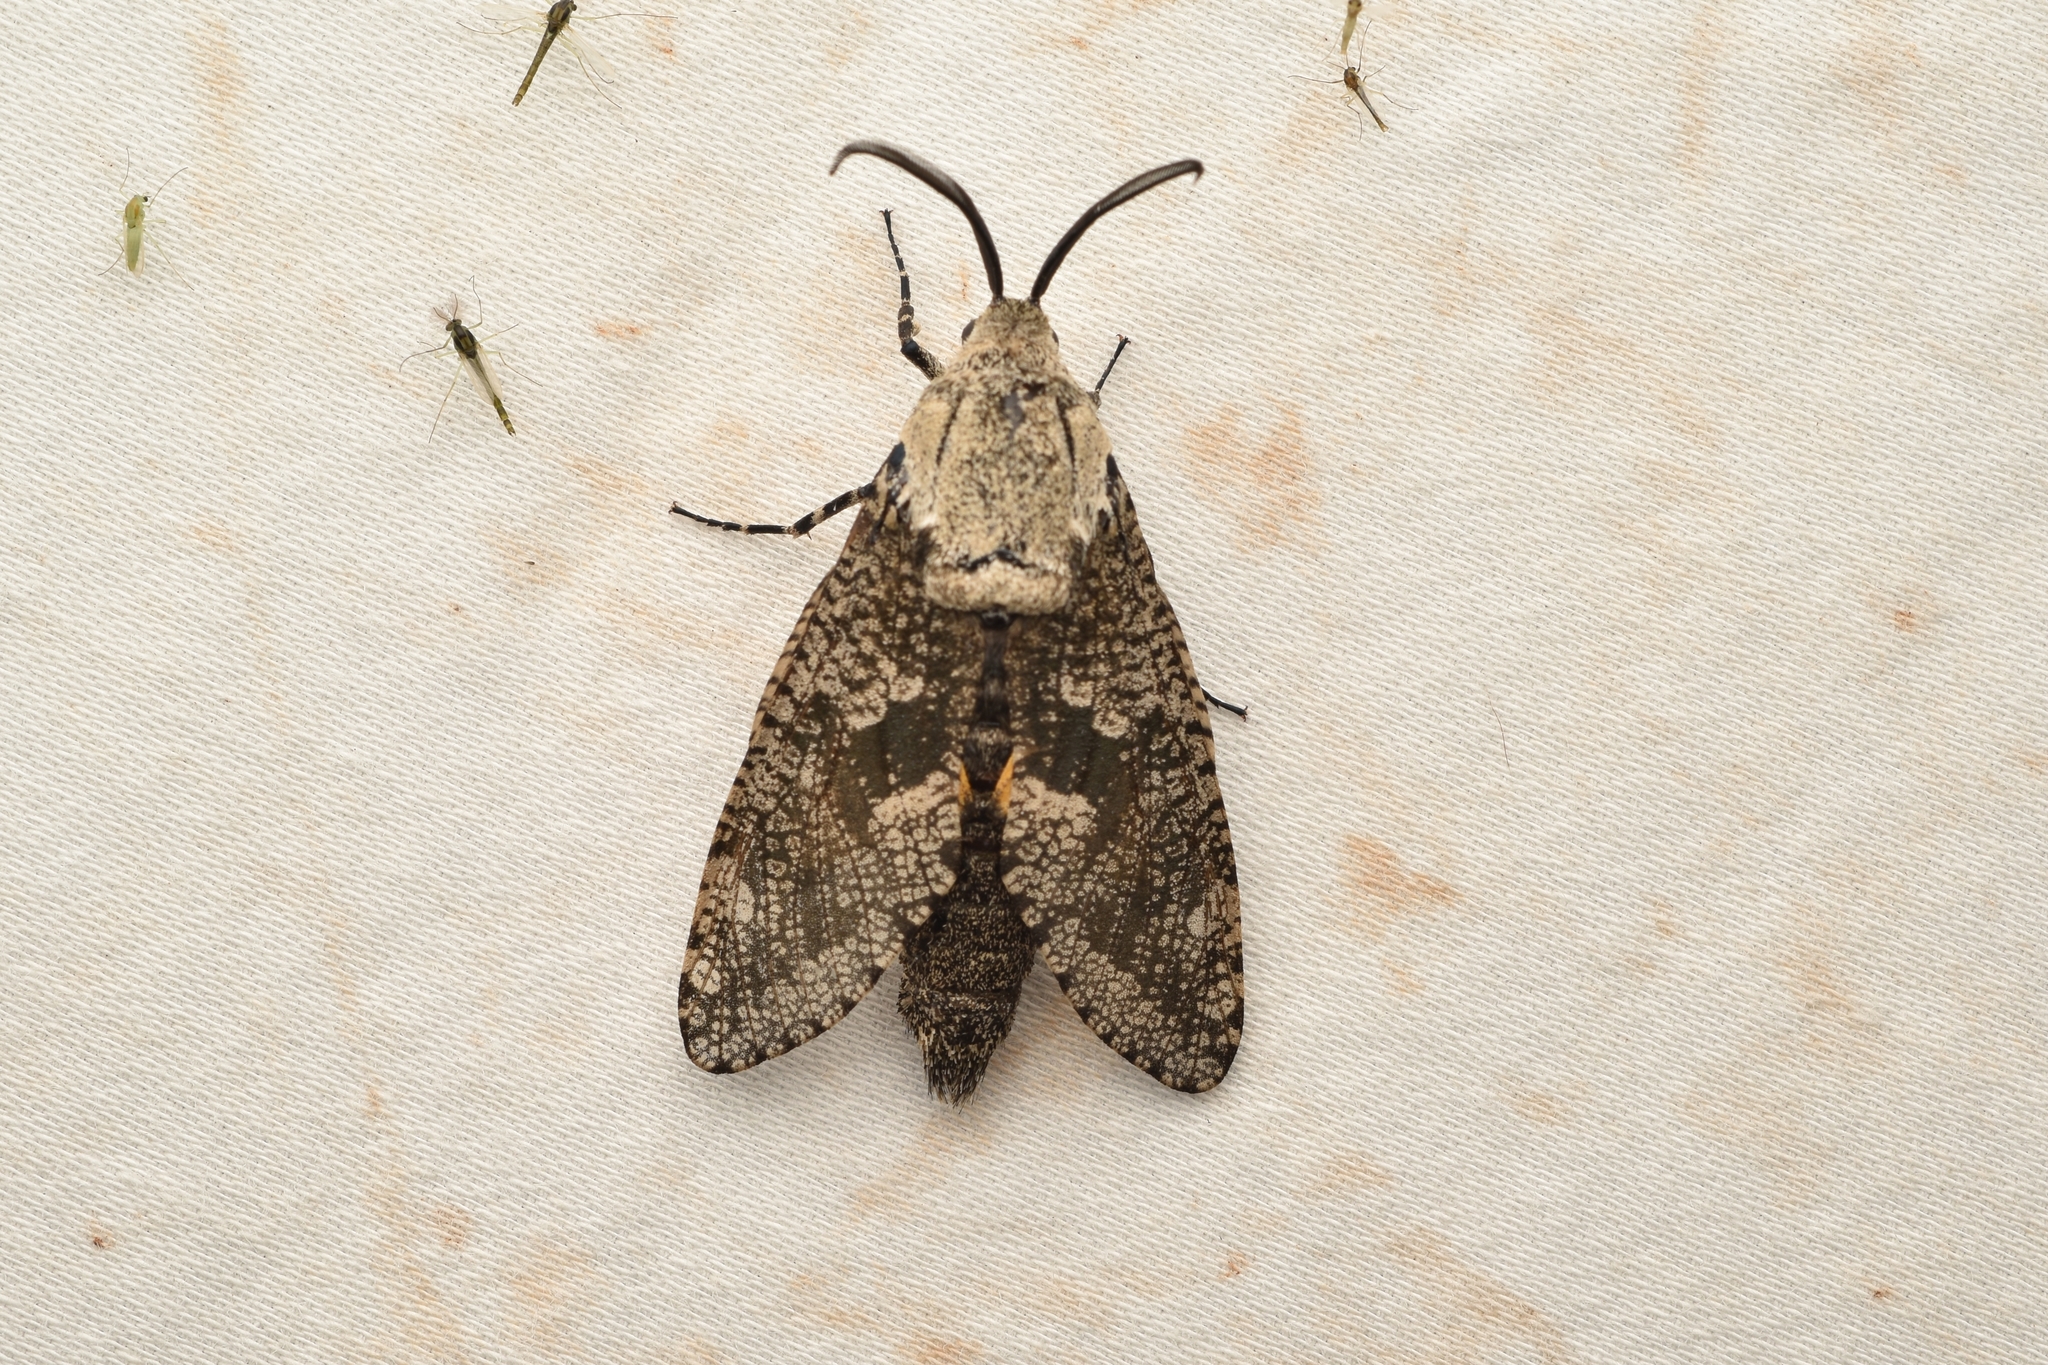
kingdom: Animalia
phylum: Arthropoda
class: Insecta
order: Lepidoptera
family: Cossidae
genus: Prionoxystus
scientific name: Prionoxystus robiniae
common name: Carpenterworm
